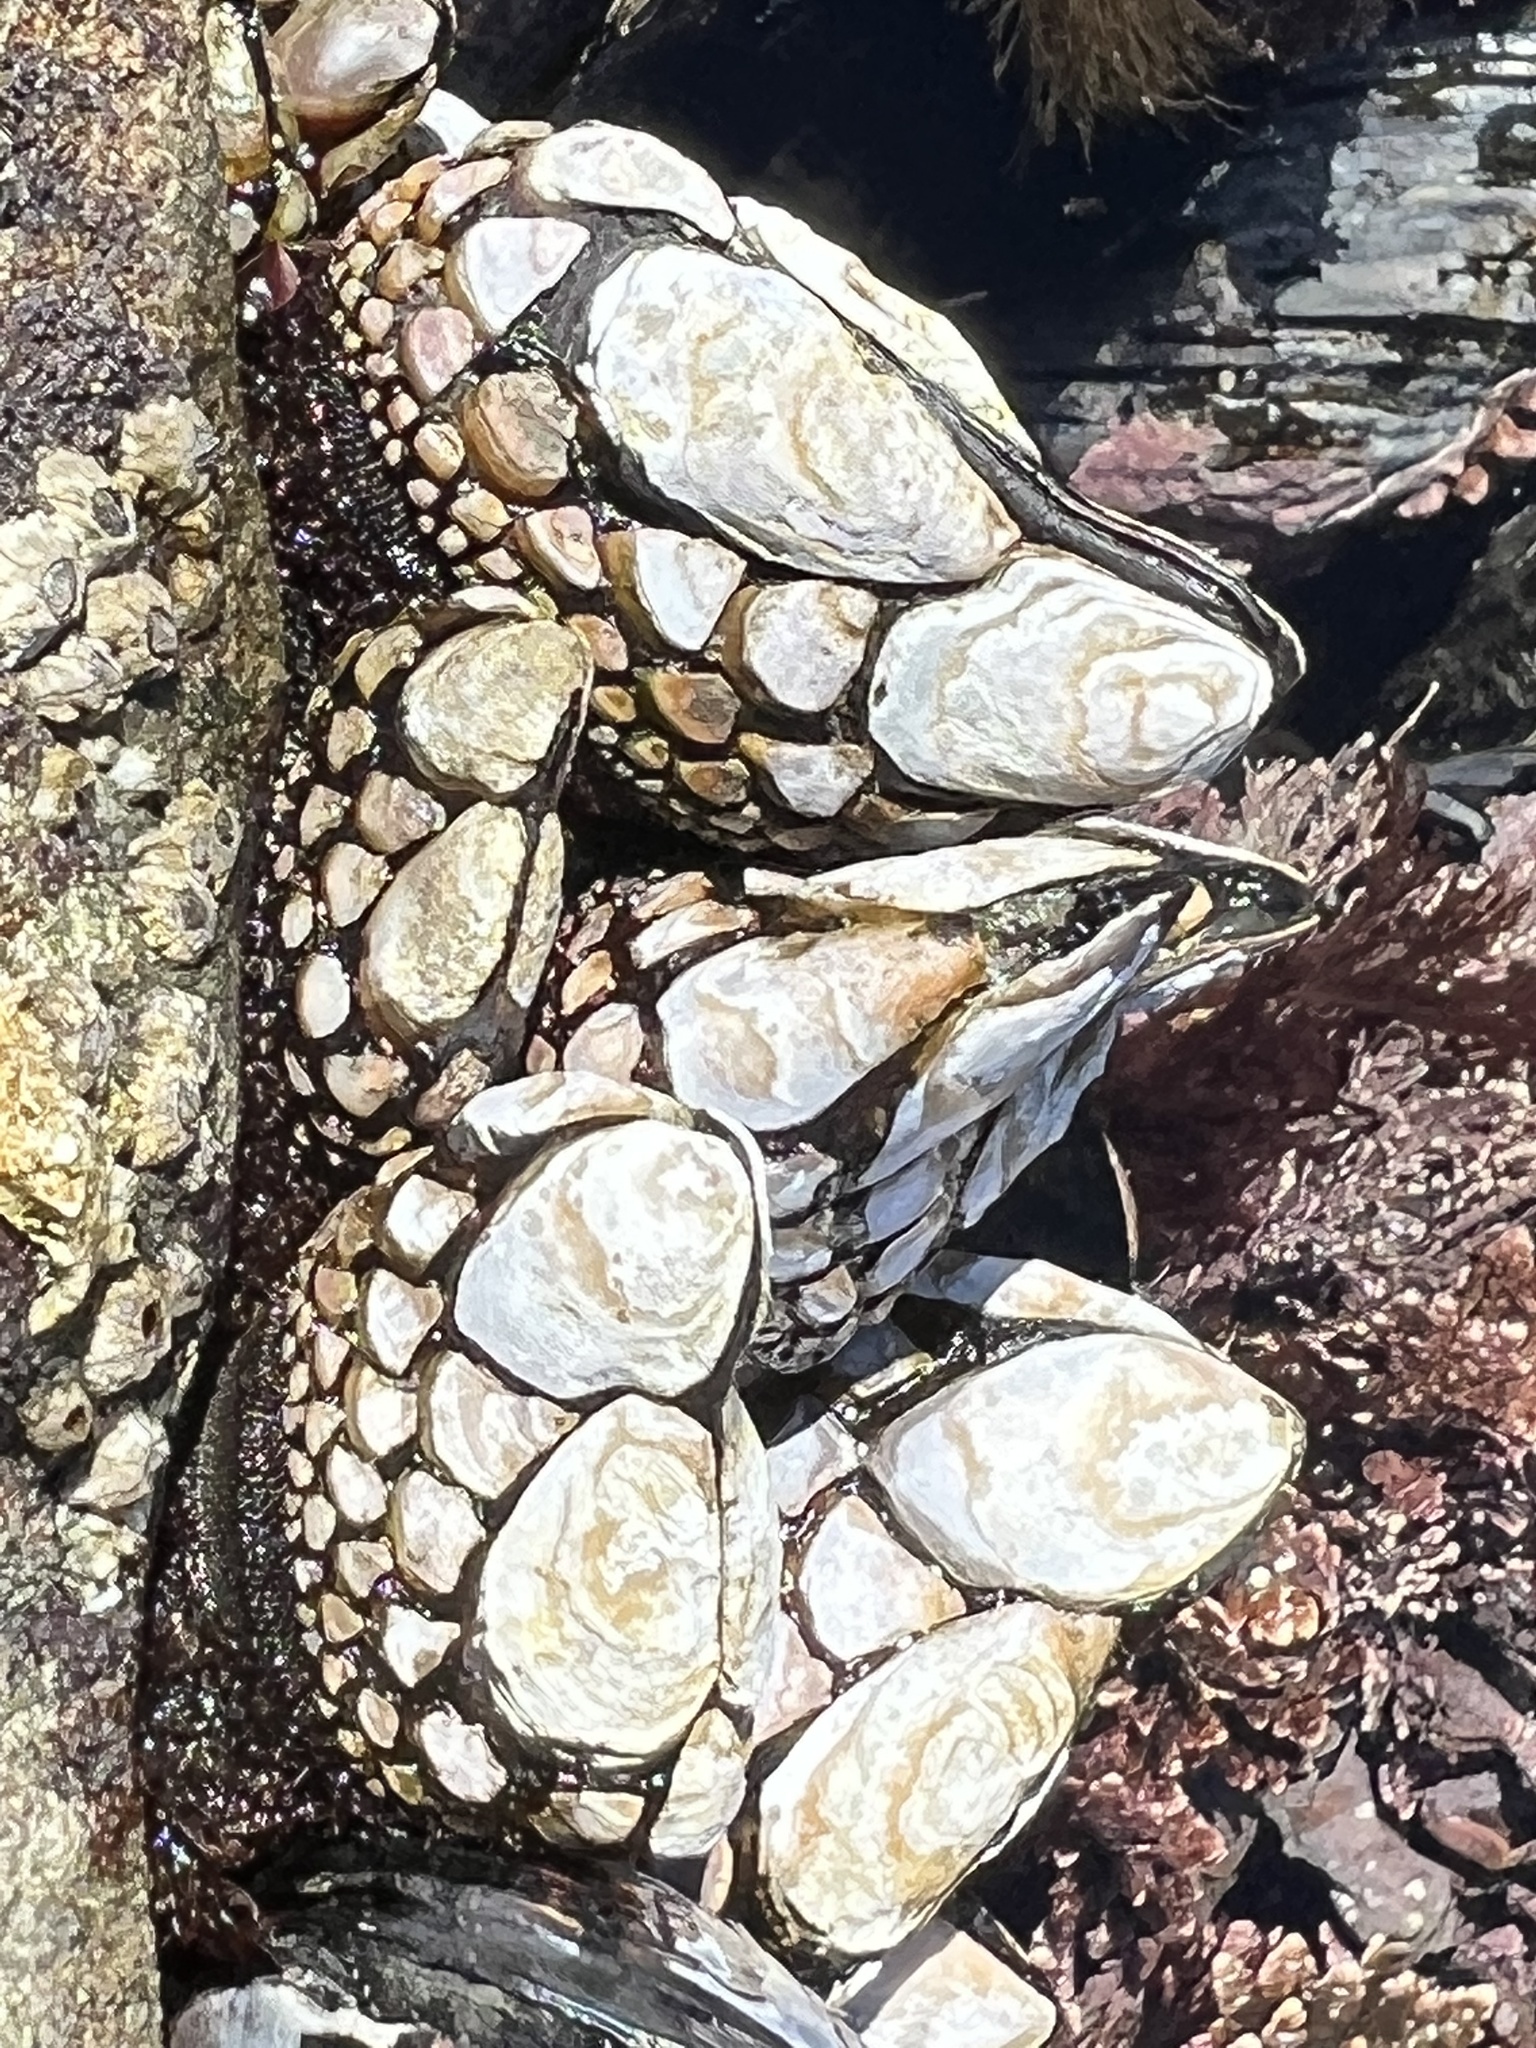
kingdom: Animalia
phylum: Arthropoda
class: Maxillopoda
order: Pedunculata
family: Pollicipedidae
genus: Pollicipes
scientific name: Pollicipes polymerus
